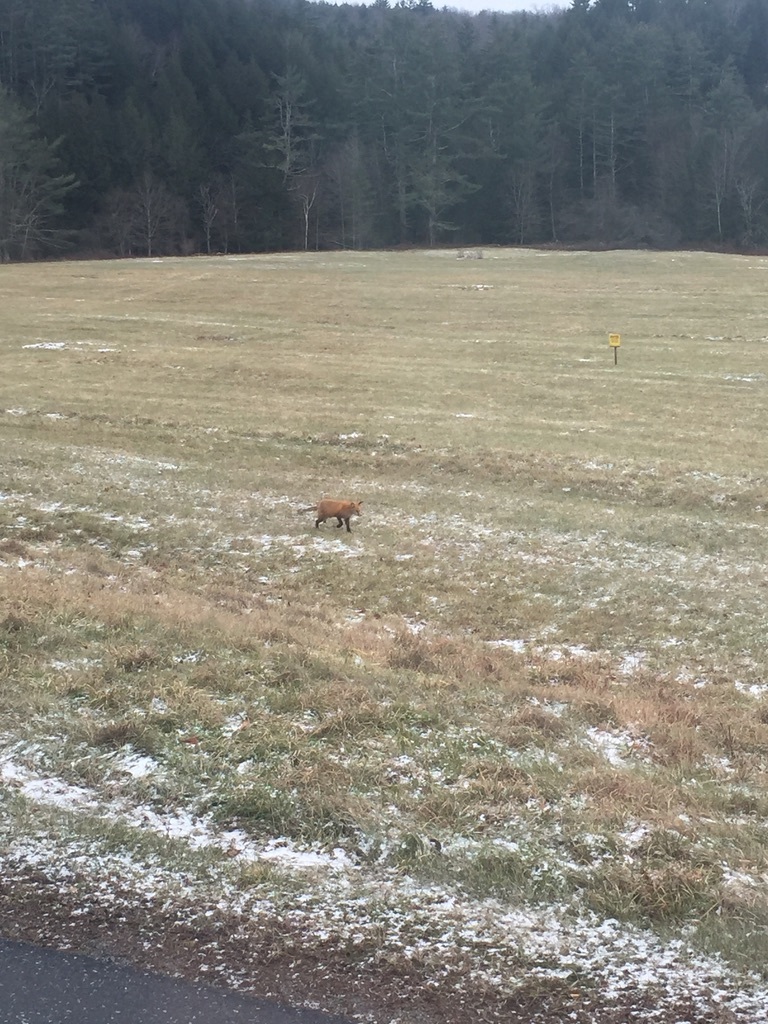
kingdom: Animalia
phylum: Chordata
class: Mammalia
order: Carnivora
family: Canidae
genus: Vulpes
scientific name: Vulpes vulpes
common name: Red fox
